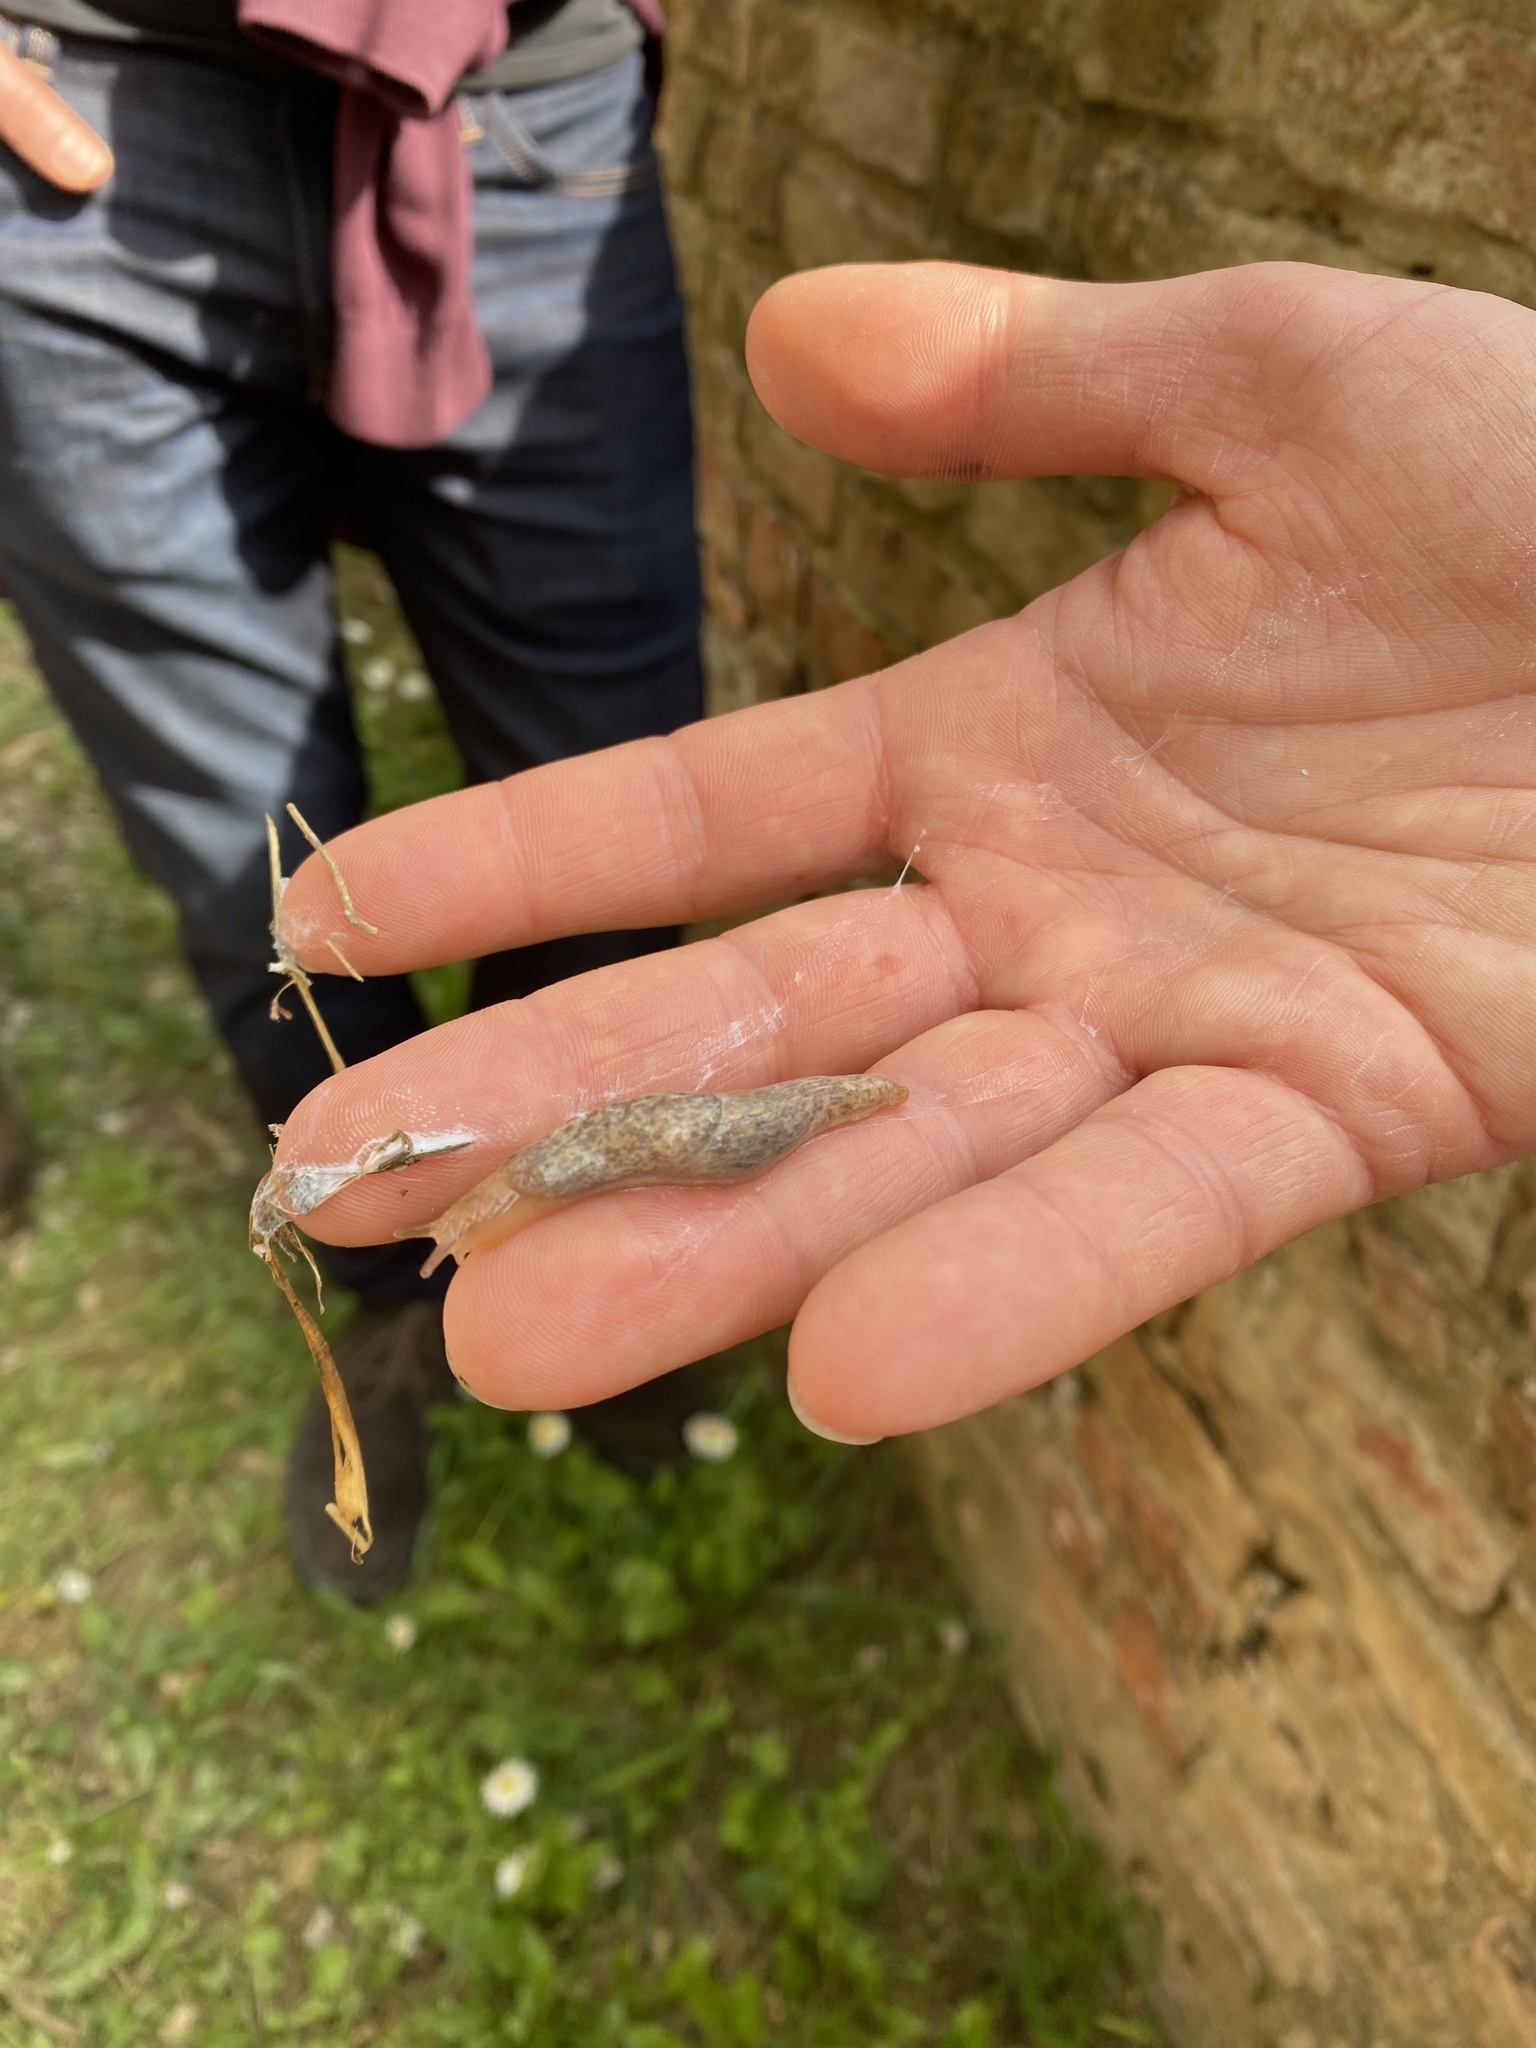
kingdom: Animalia
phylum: Mollusca
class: Gastropoda
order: Stylommatophora
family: Agriolimacidae
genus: Deroceras
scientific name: Deroceras reticulatum
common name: Gray field slug
